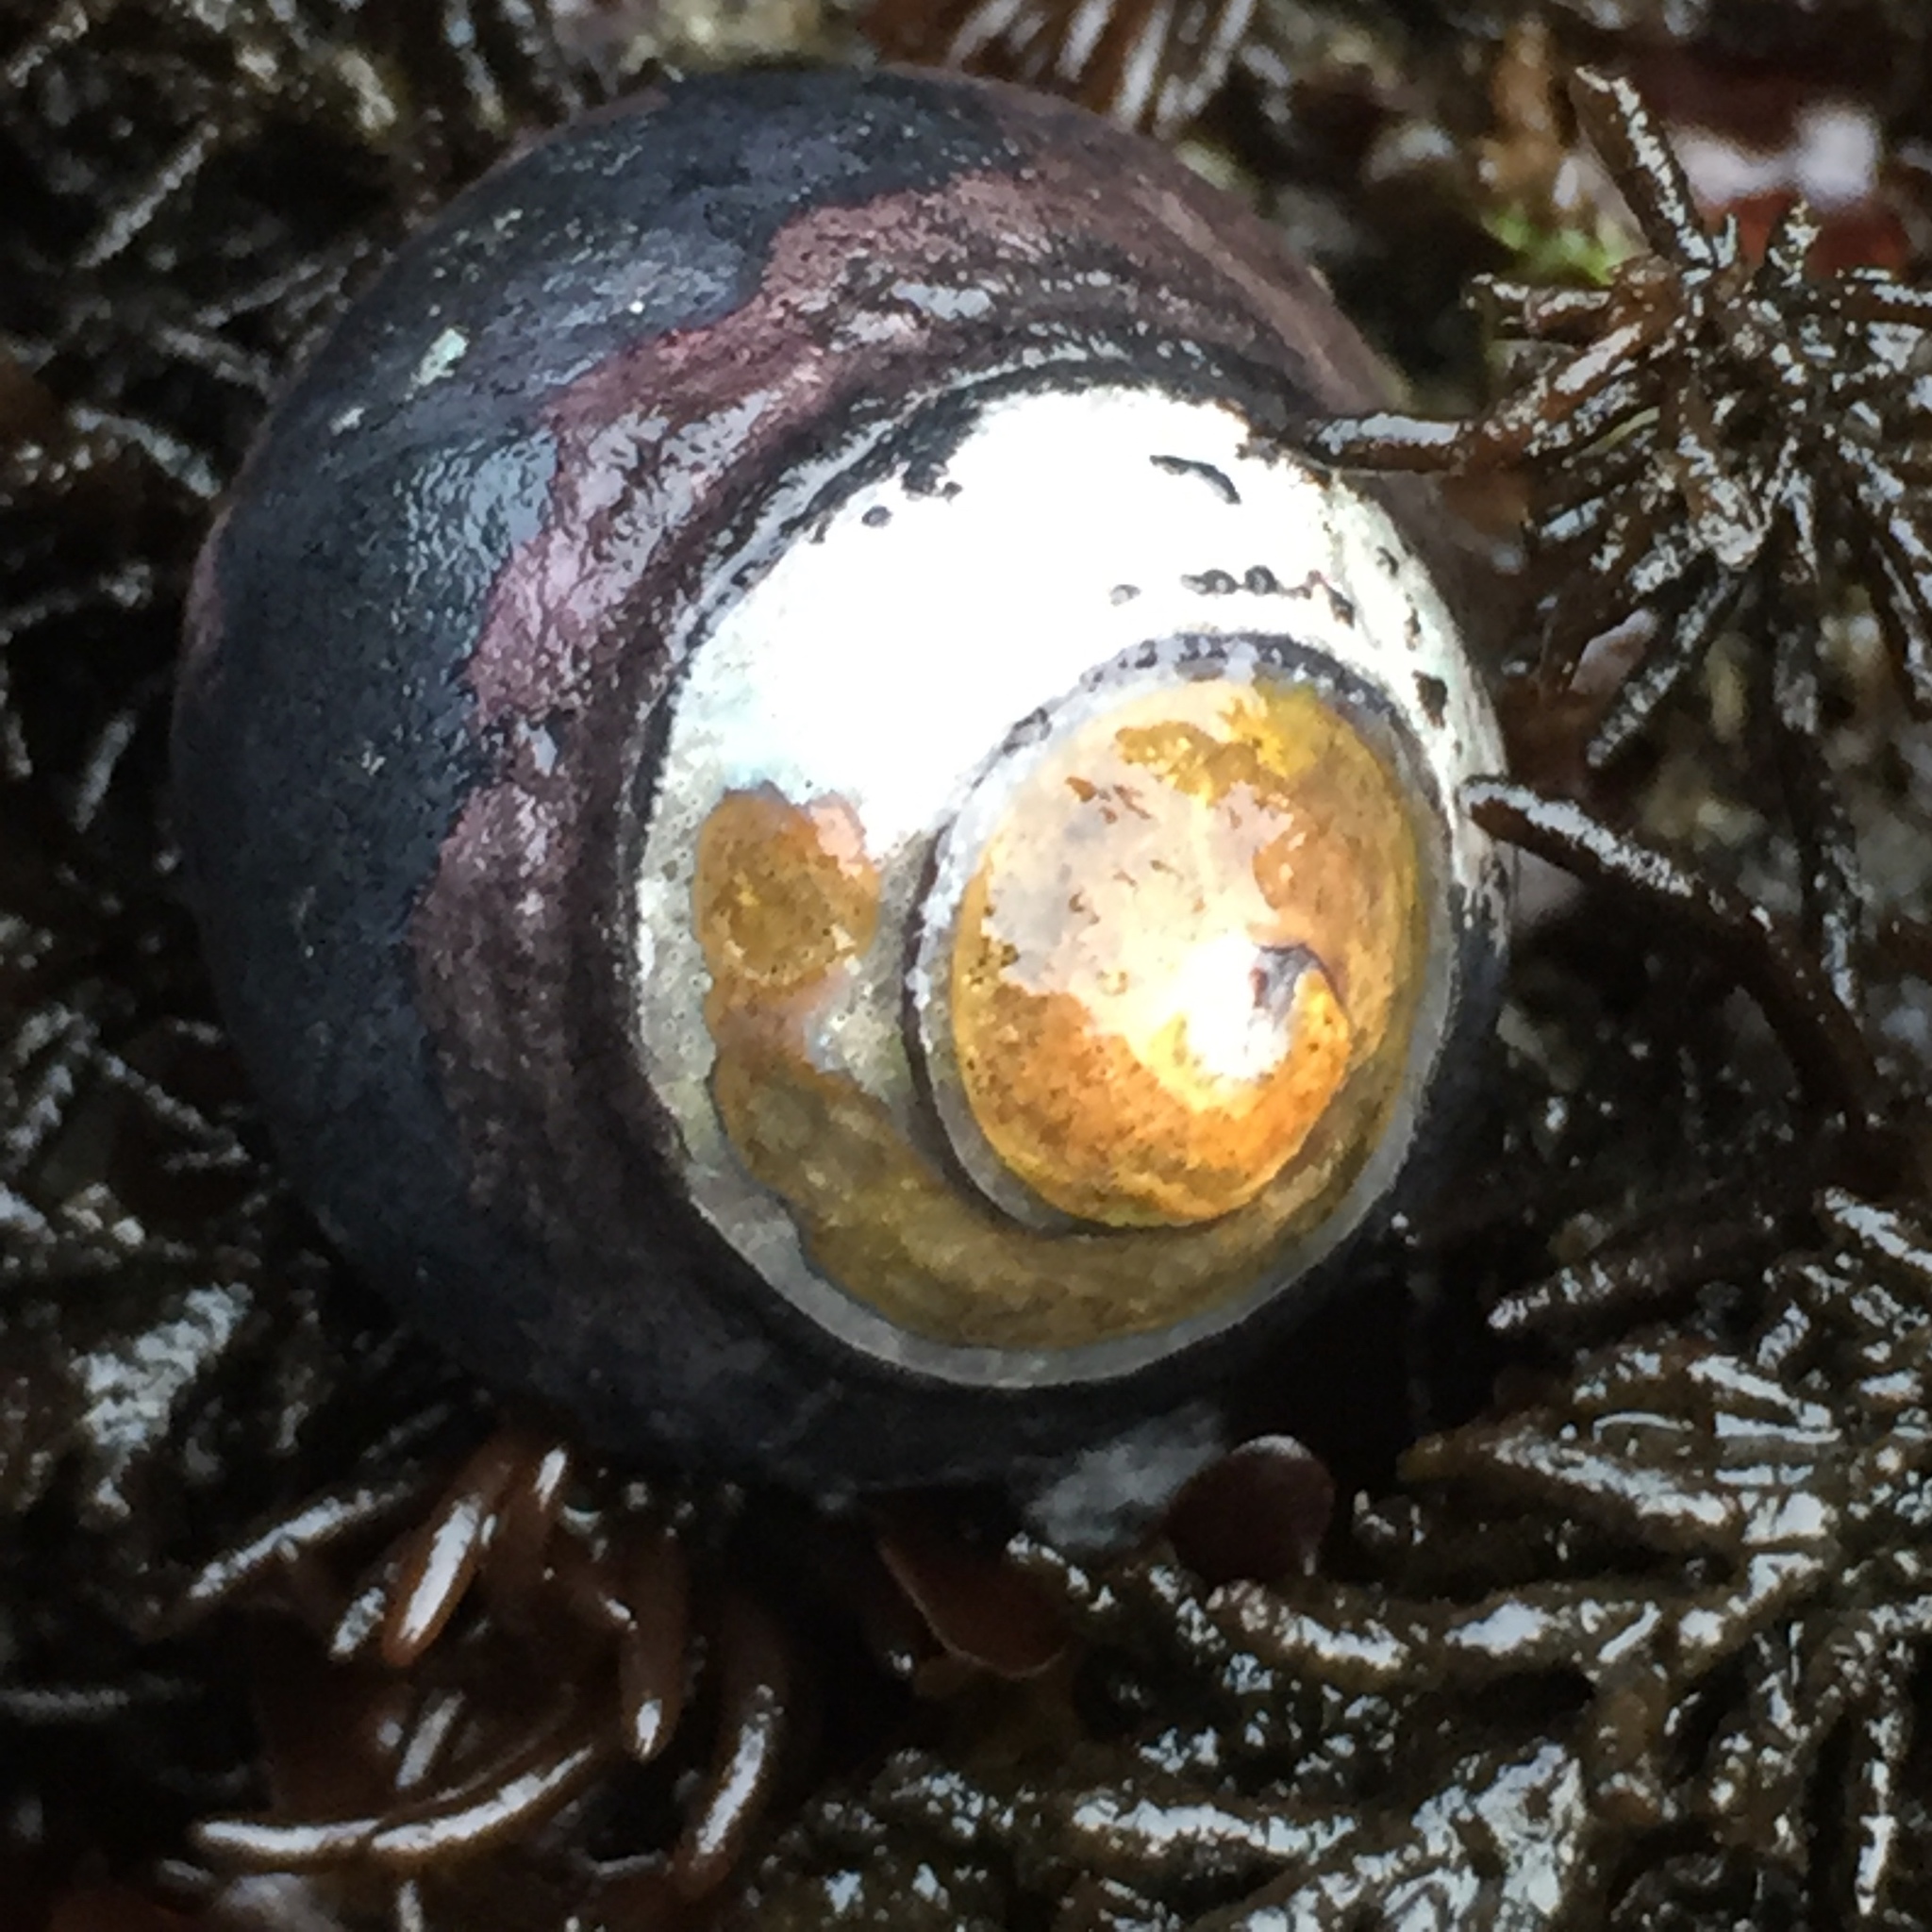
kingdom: Animalia
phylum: Mollusca
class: Gastropoda
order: Trochida
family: Tegulidae
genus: Tegula
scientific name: Tegula funebralis
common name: Black tegula
